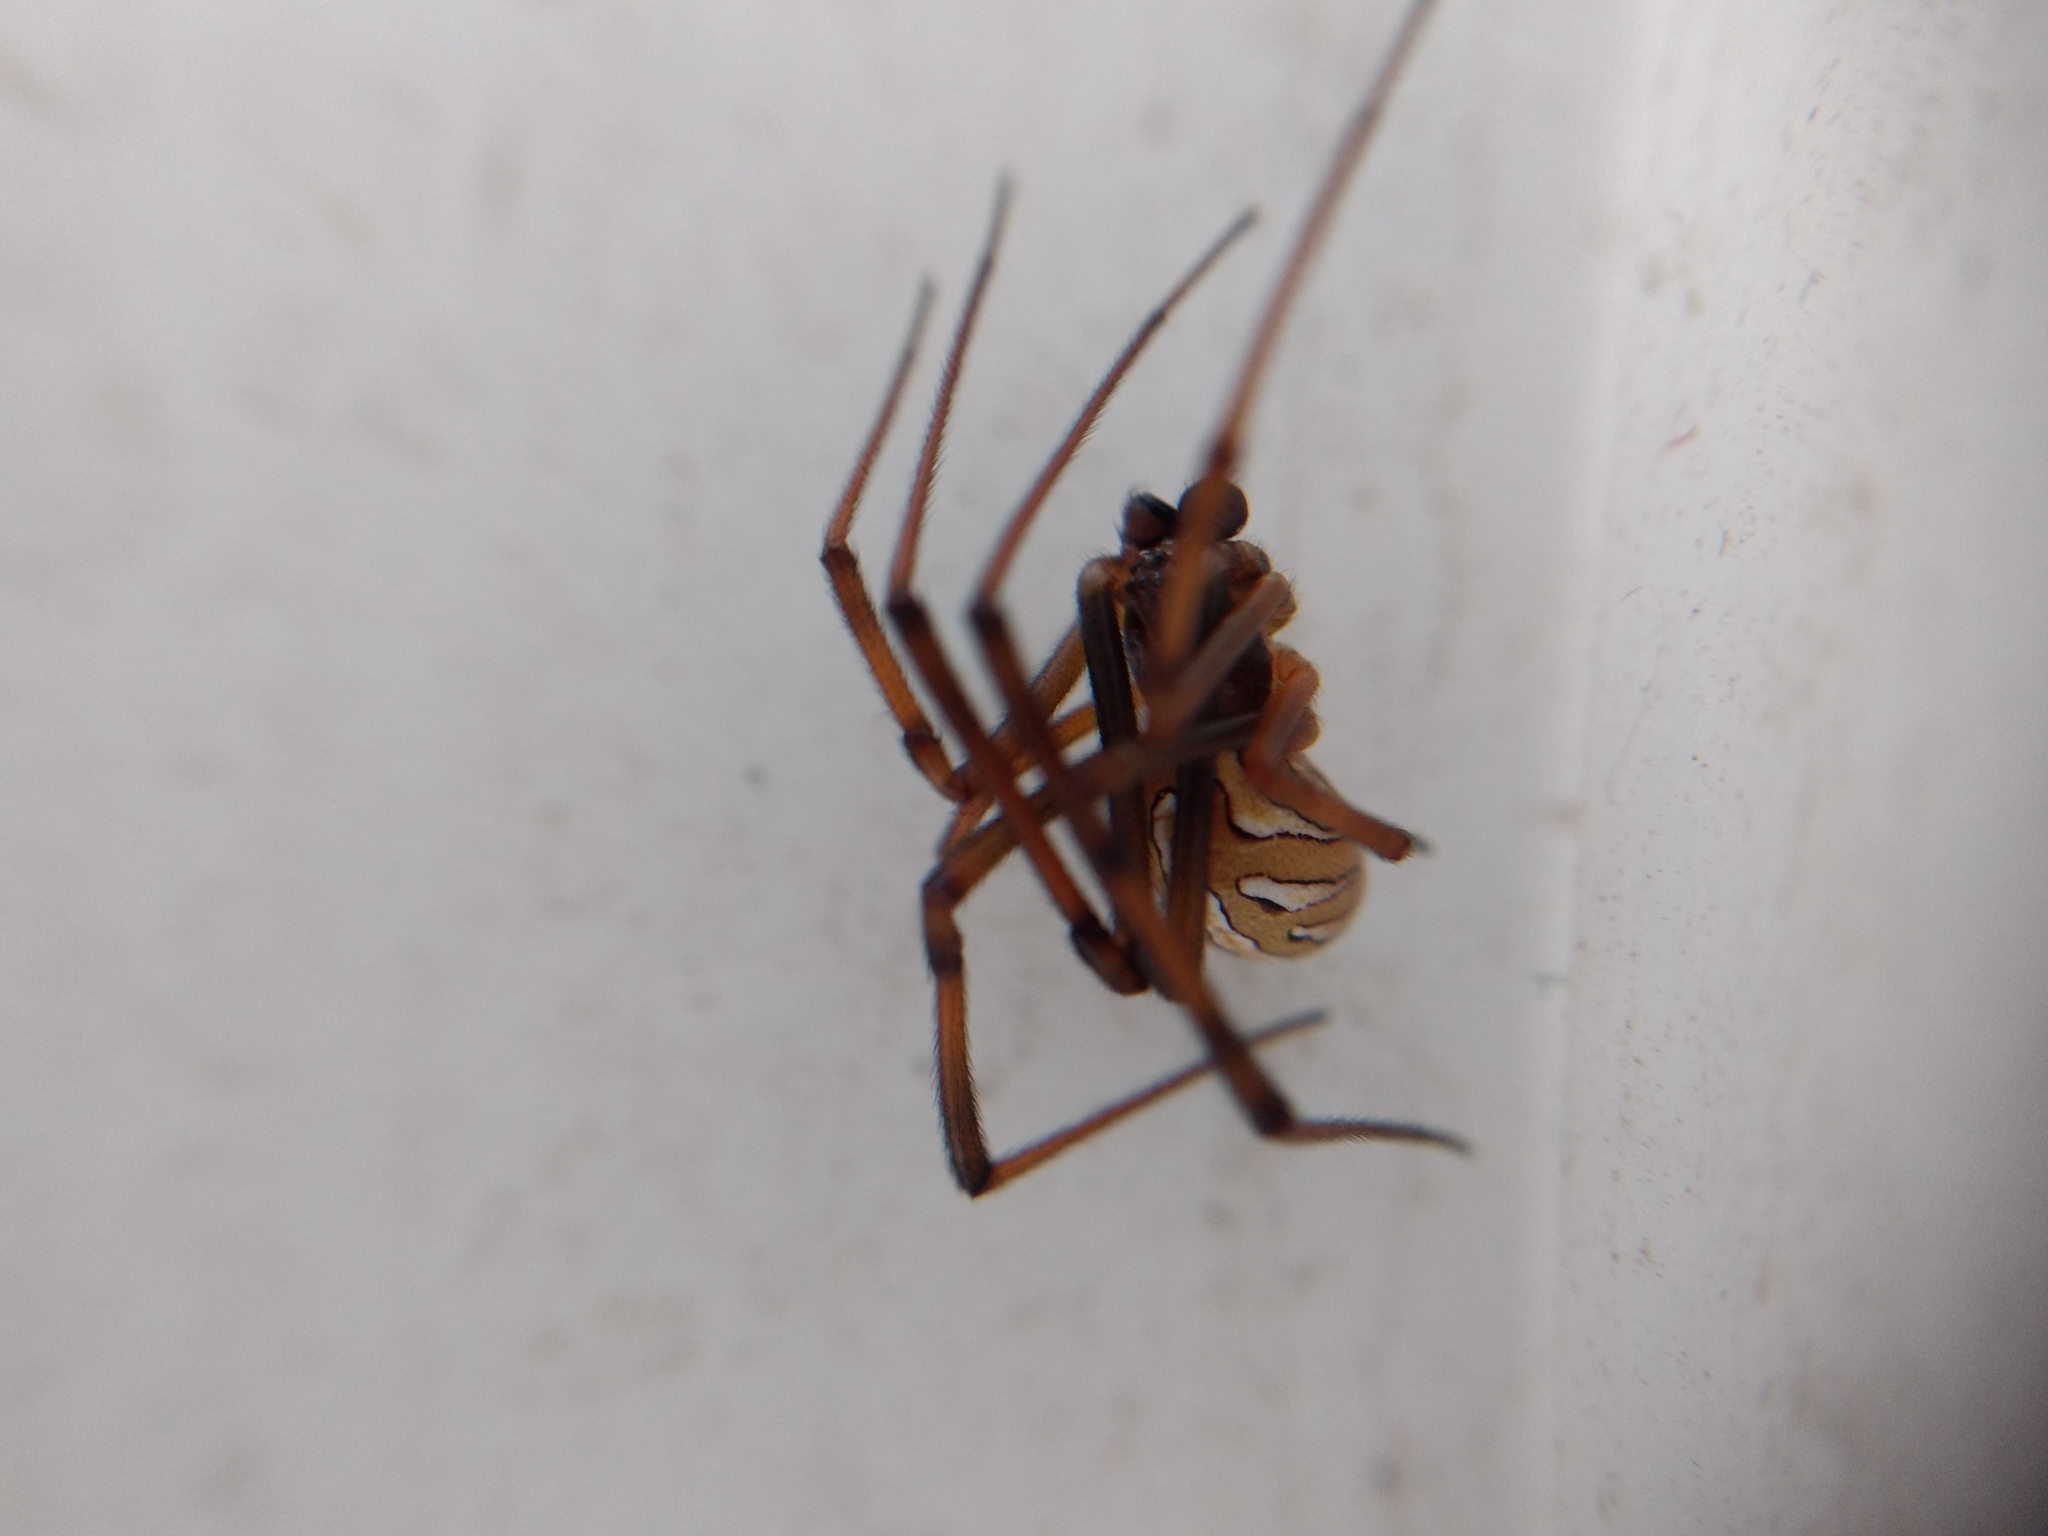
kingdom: Animalia
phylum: Arthropoda
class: Arachnida
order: Araneae
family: Theridiidae
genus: Latrodectus
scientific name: Latrodectus hesperus
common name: Western black widow
